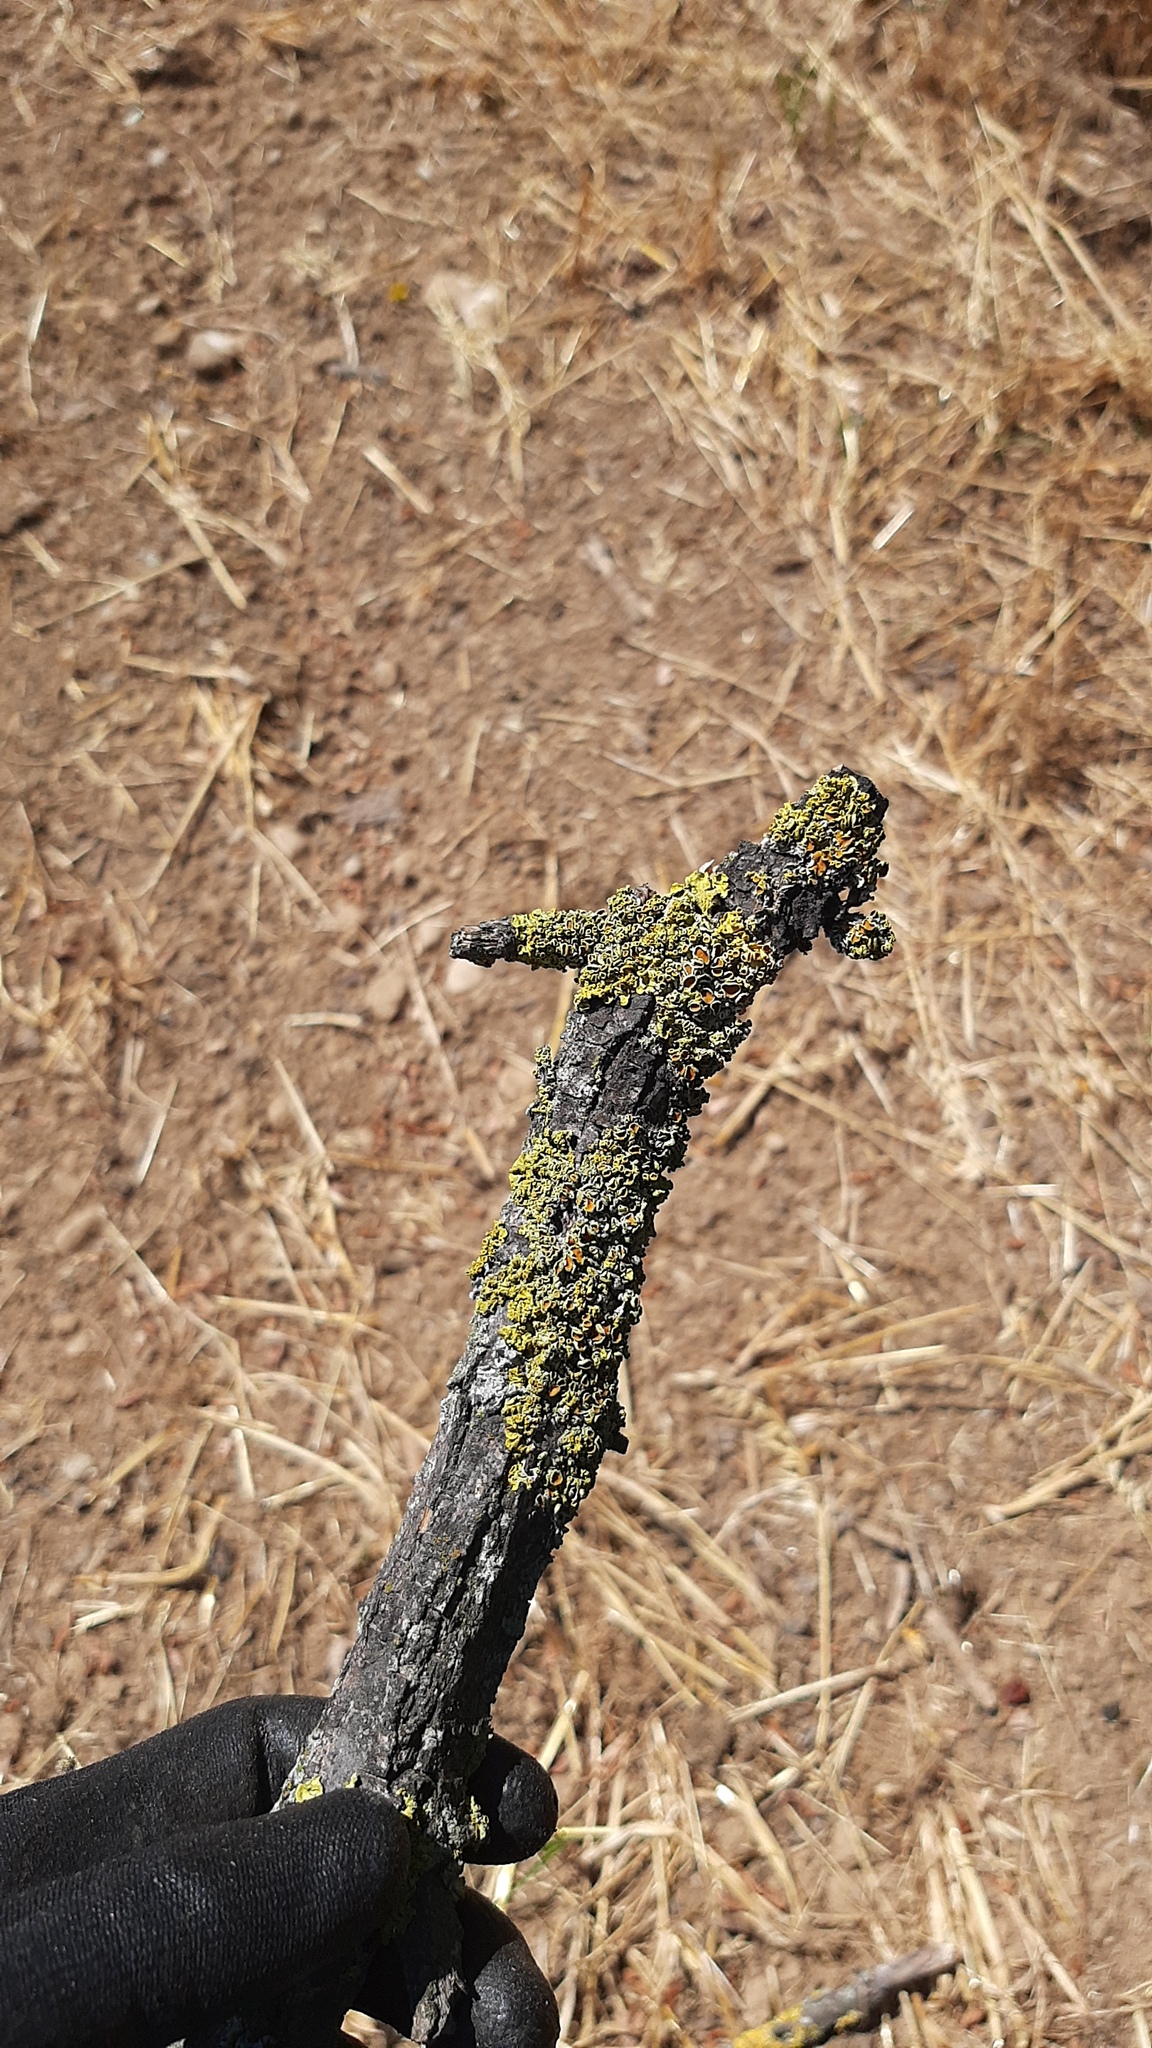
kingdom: Fungi
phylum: Ascomycota
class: Lecanoromycetes
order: Teloschistales
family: Teloschistaceae
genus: Xanthoria
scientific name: Xanthoria parietina
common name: Common orange lichen
